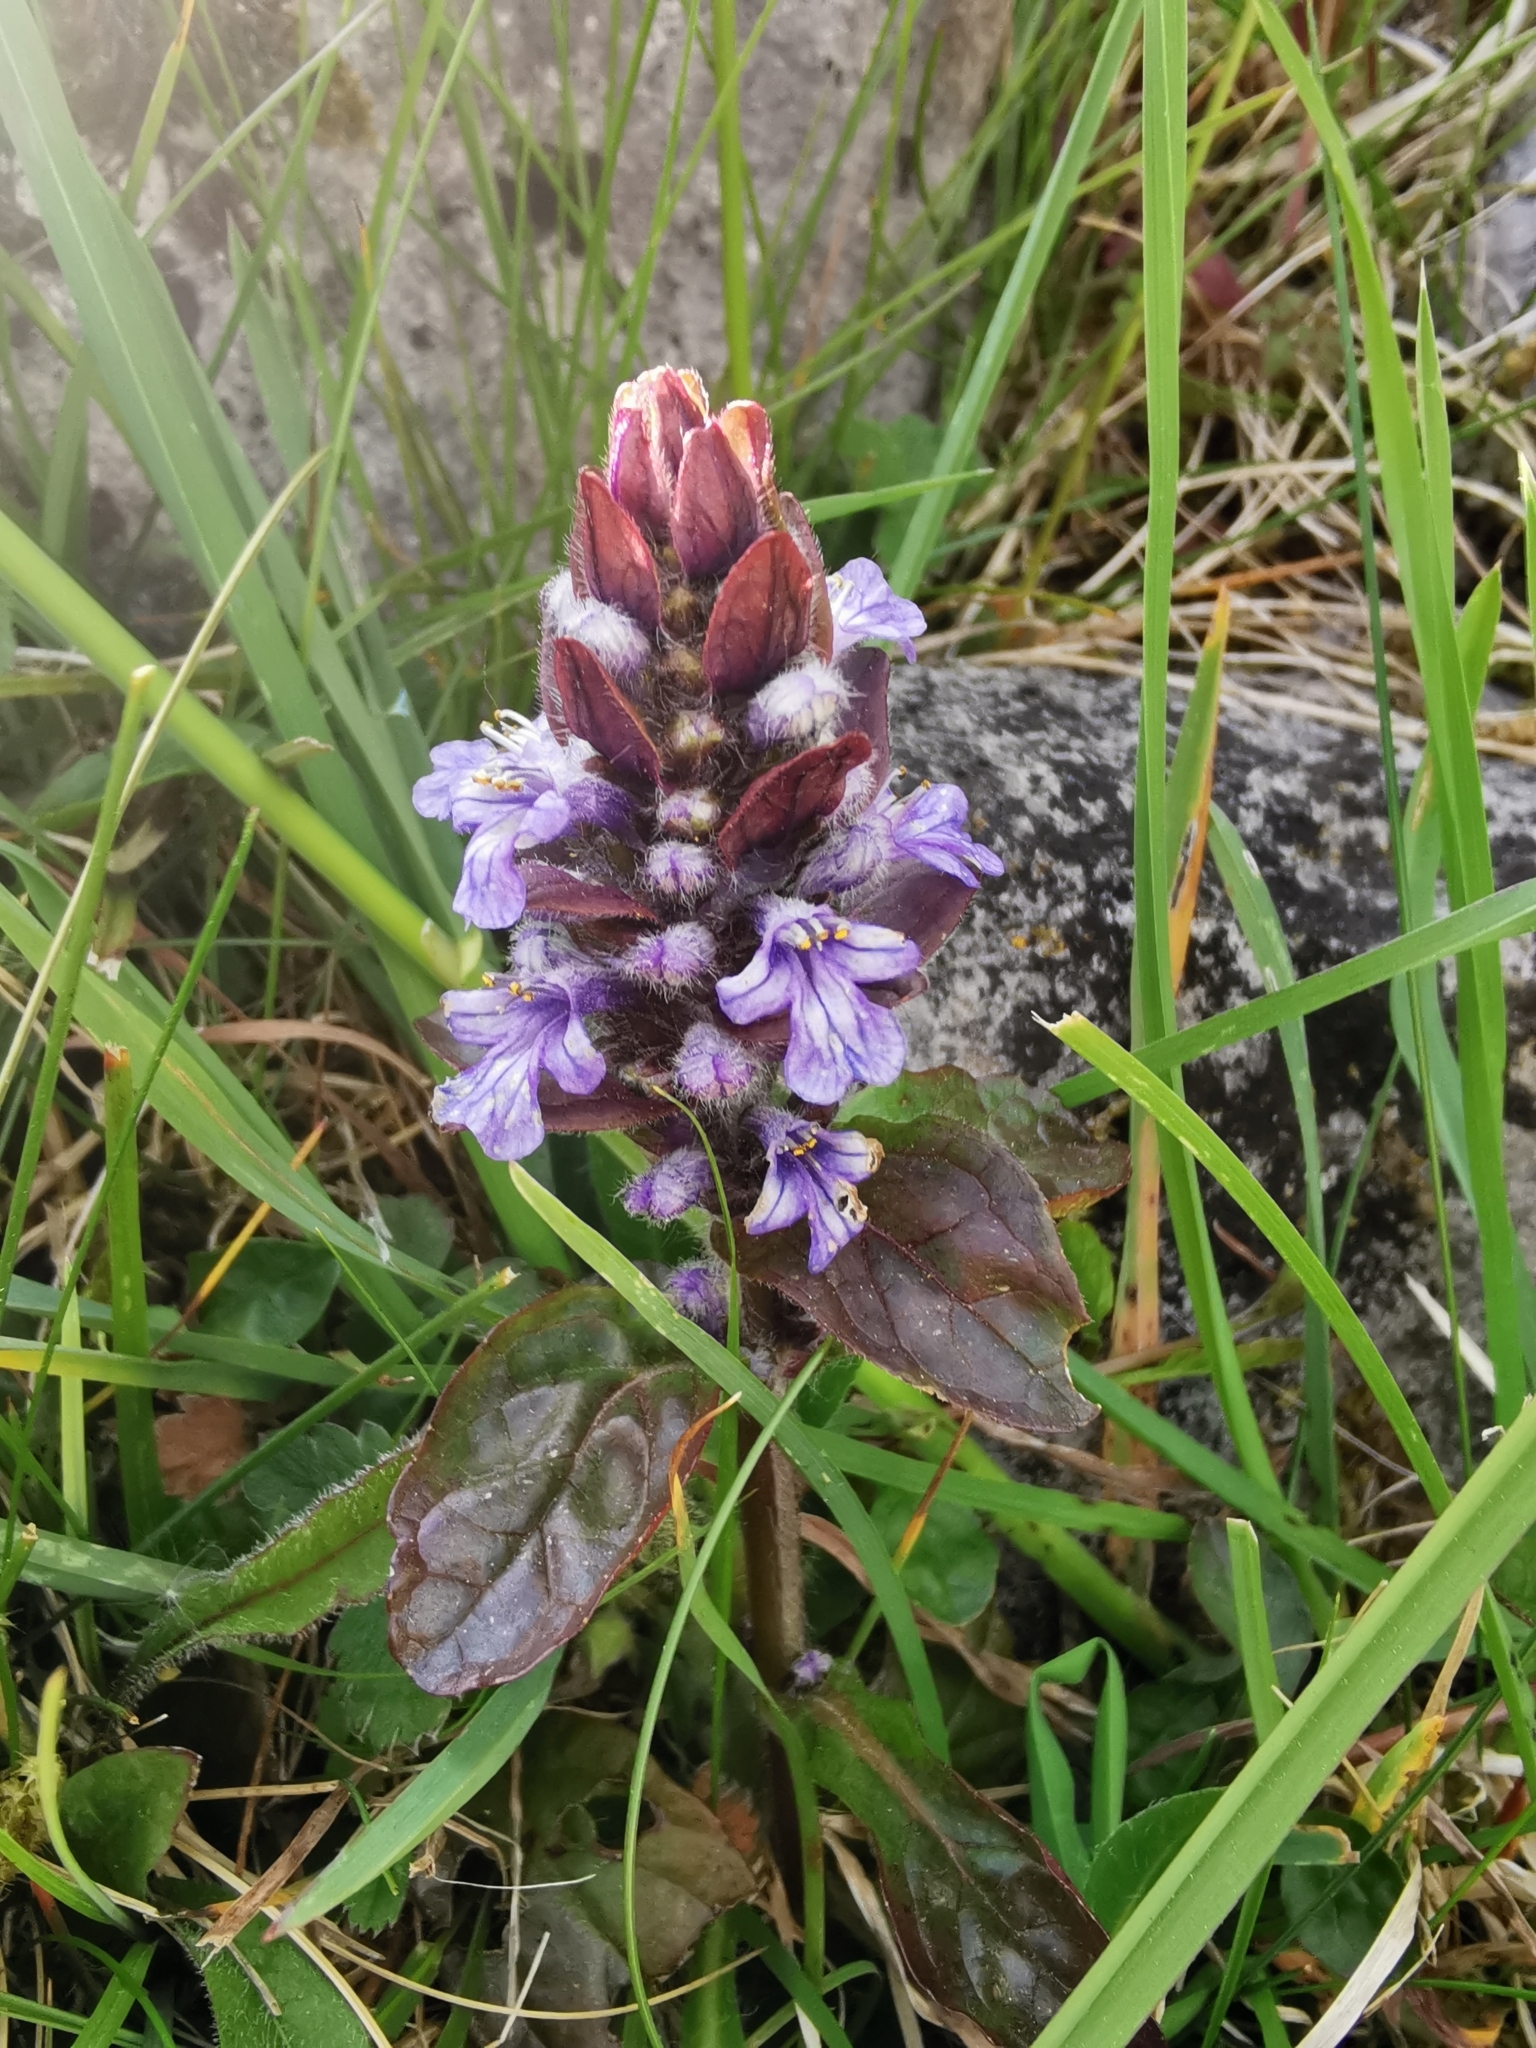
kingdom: Plantae
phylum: Tracheophyta
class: Magnoliopsida
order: Lamiales
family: Lamiaceae
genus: Ajuga
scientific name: Ajuga reptans
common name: Bugle
